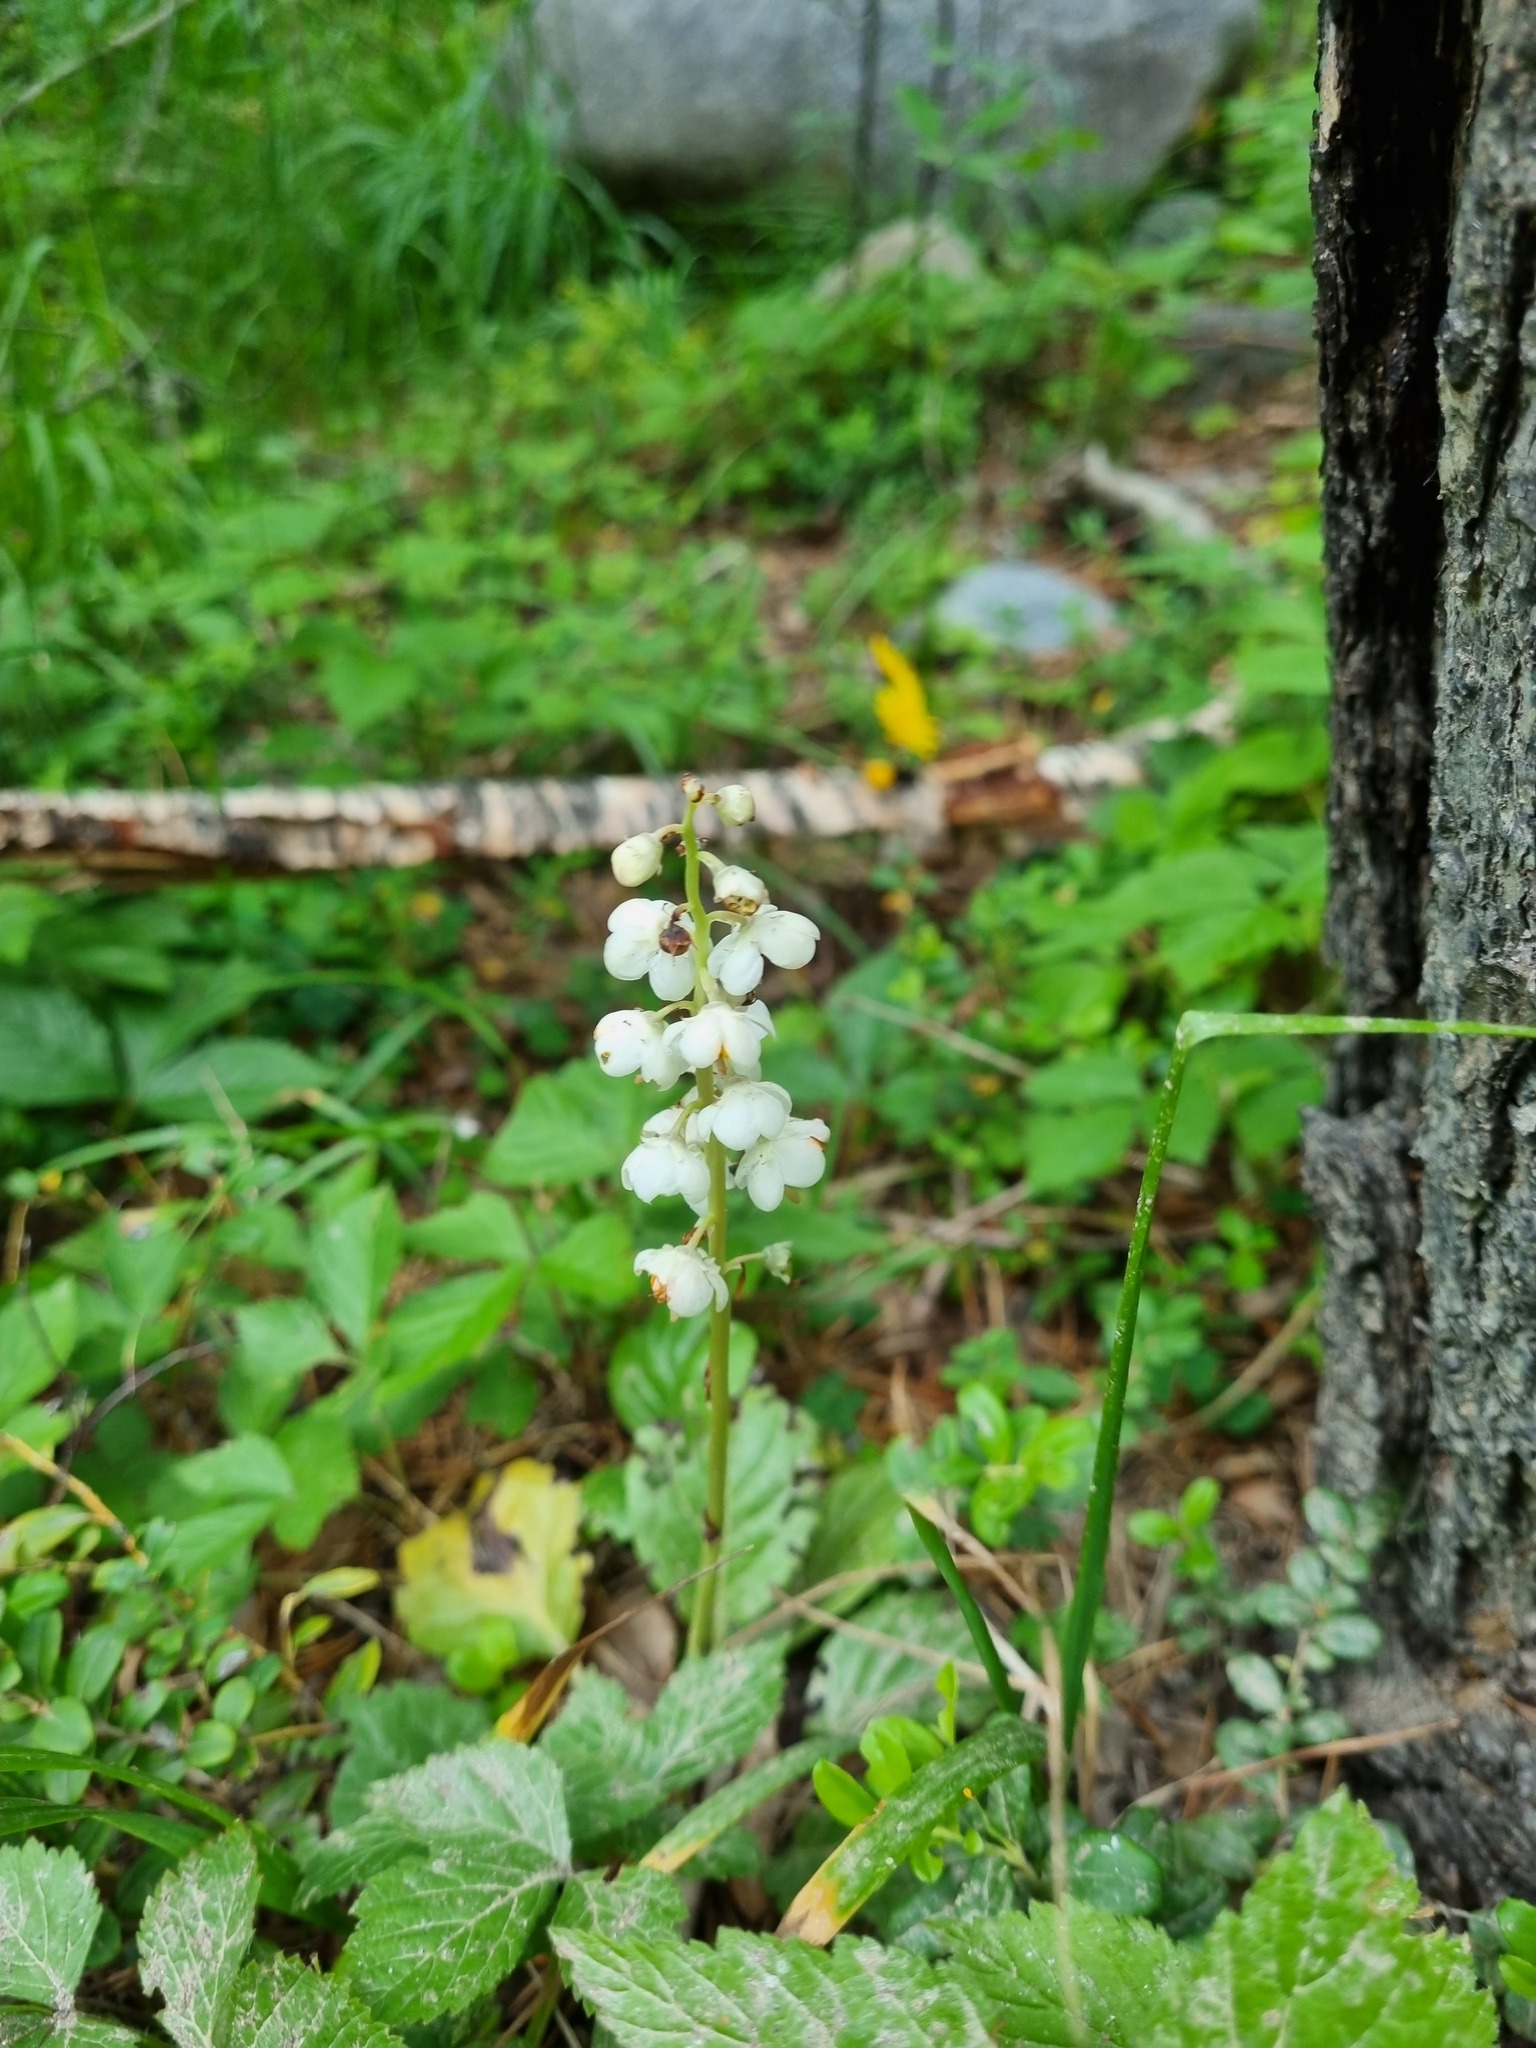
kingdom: Plantae
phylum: Tracheophyta
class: Magnoliopsida
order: Ericales
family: Ericaceae
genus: Pyrola
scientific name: Pyrola rotundifolia
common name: Round-leaved wintergreen
